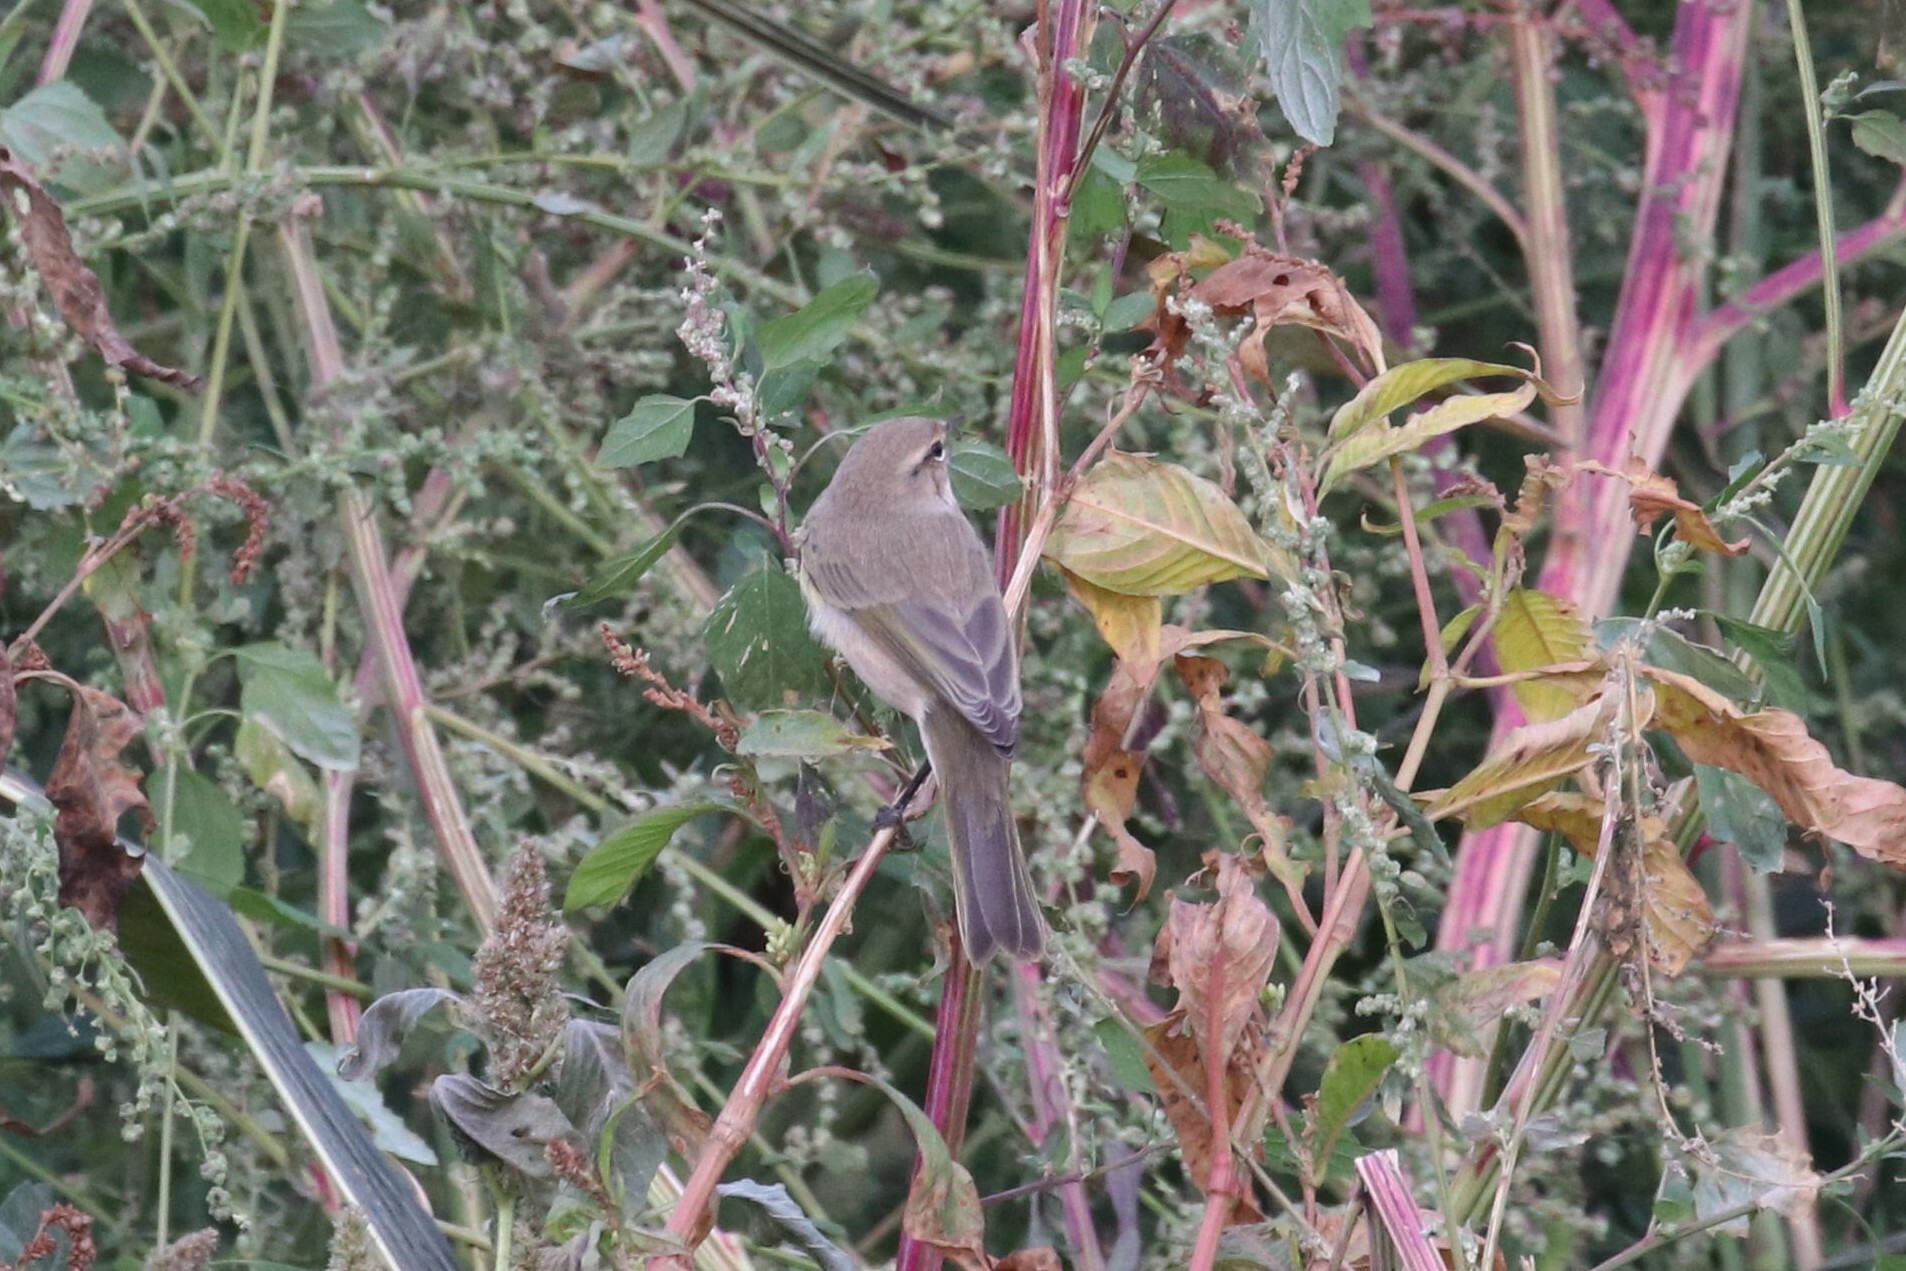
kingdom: Animalia
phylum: Chordata
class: Aves
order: Passeriformes
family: Phylloscopidae
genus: Phylloscopus
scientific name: Phylloscopus collybita
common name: Common chiffchaff
